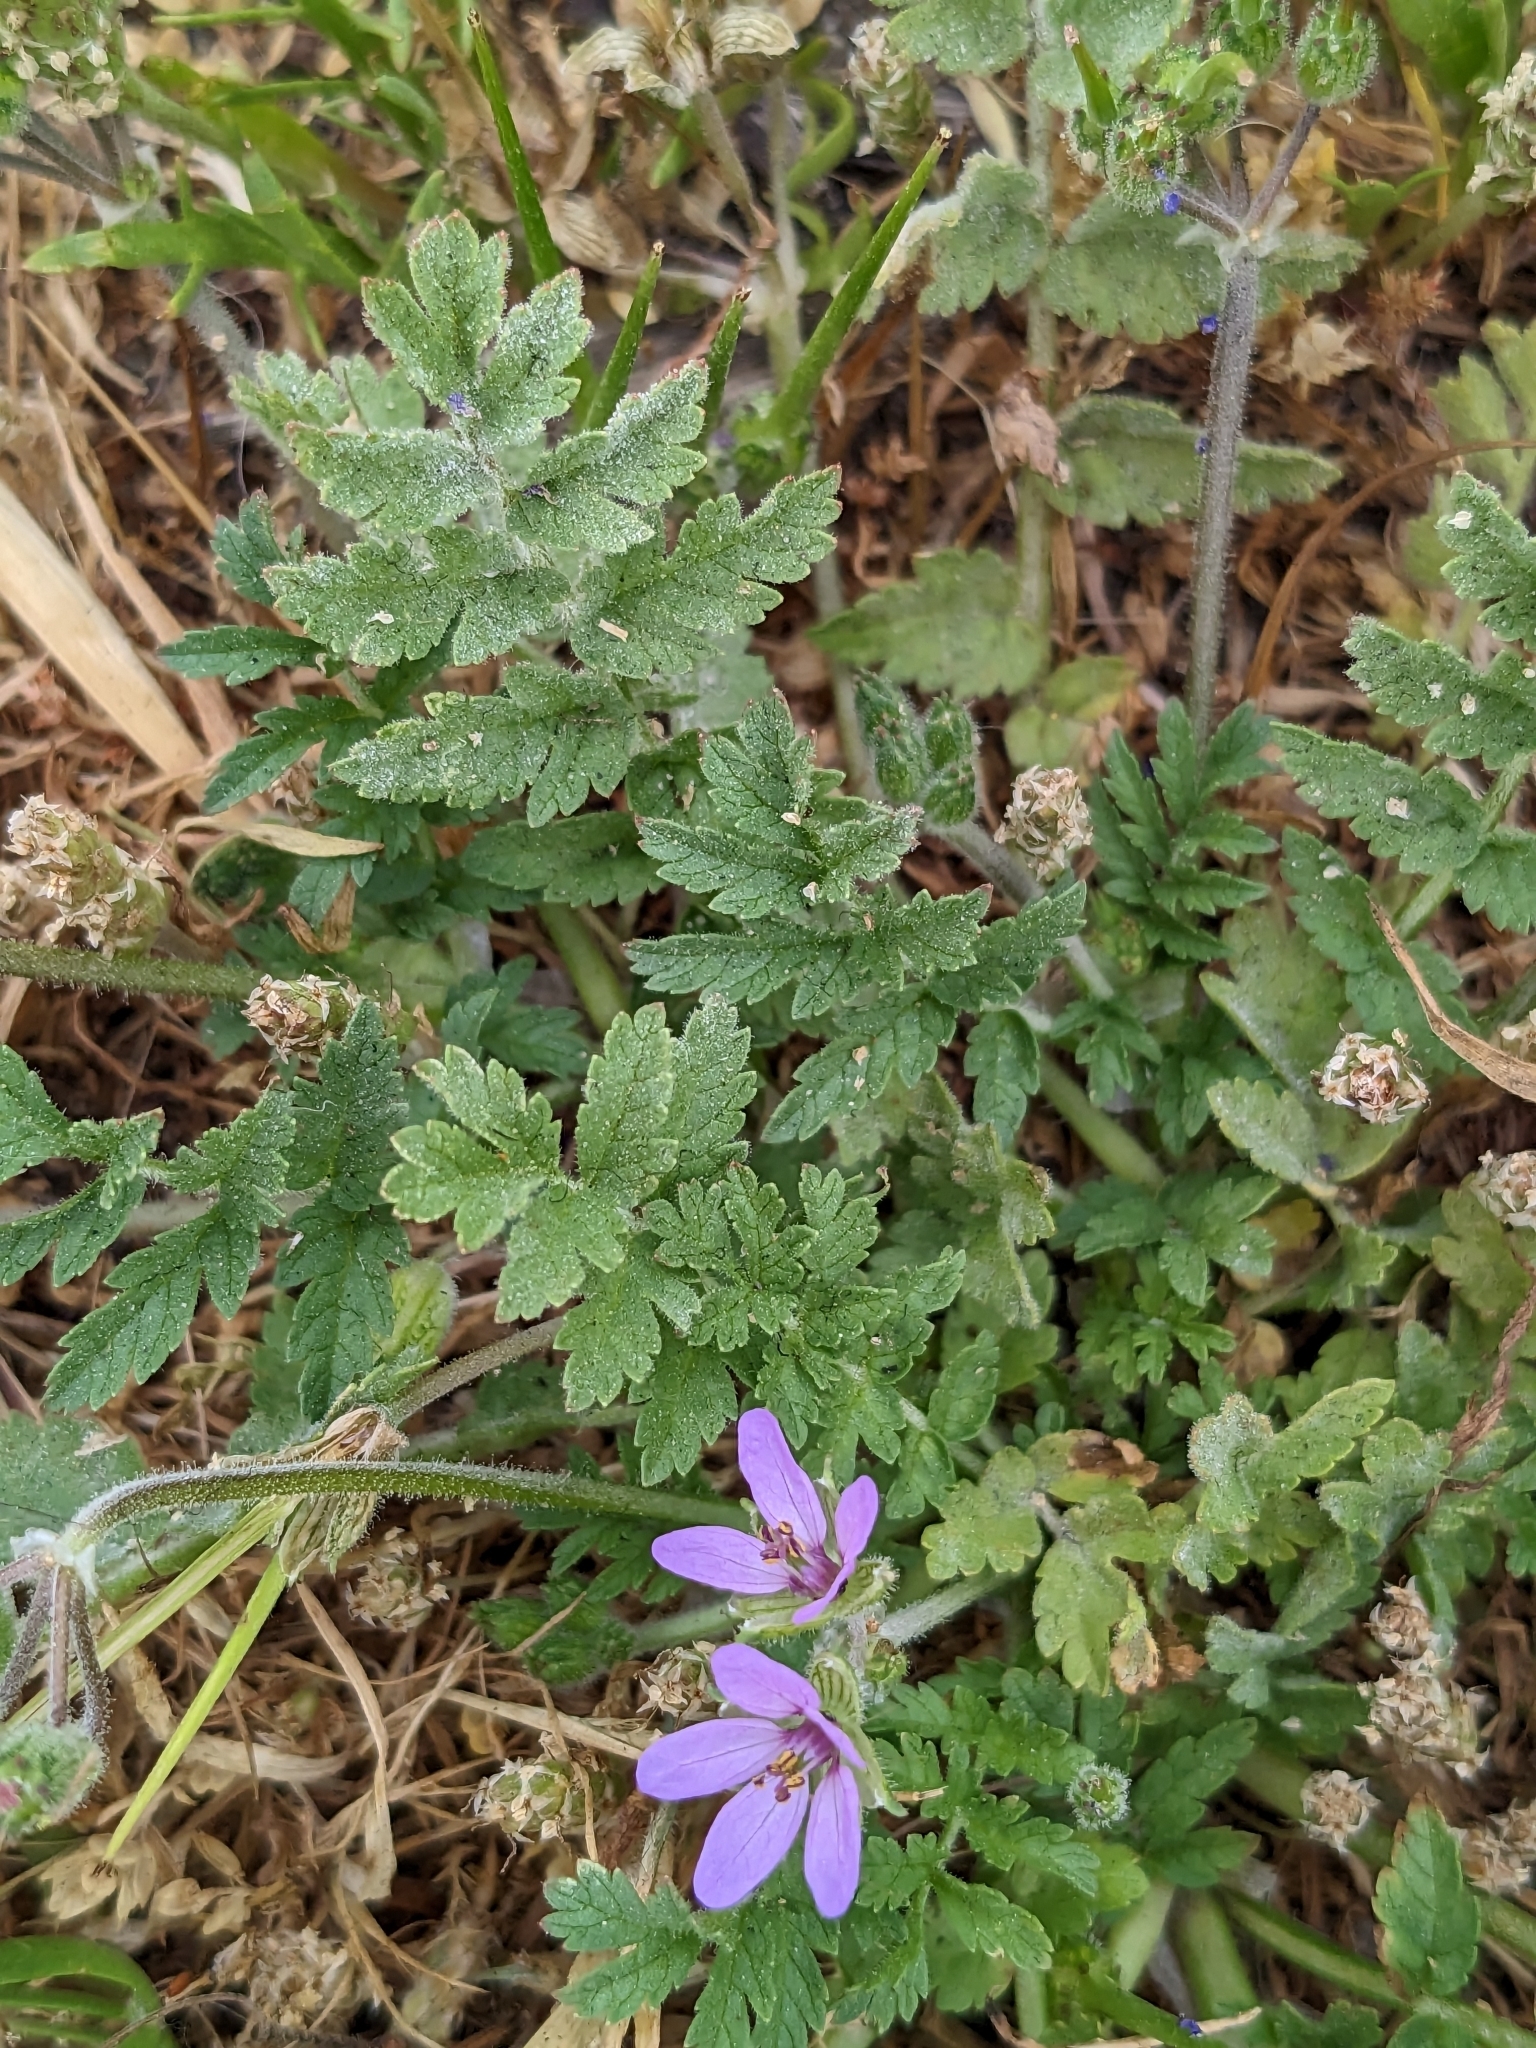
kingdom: Plantae
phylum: Tracheophyta
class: Magnoliopsida
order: Geraniales
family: Geraniaceae
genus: Erodium
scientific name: Erodium moschatum
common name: Musk stork's-bill
